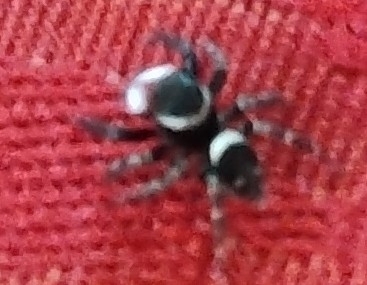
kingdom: Animalia
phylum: Arthropoda
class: Arachnida
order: Araneae
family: Salticidae
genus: Hasarius
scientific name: Hasarius adansoni
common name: Jumping spider
